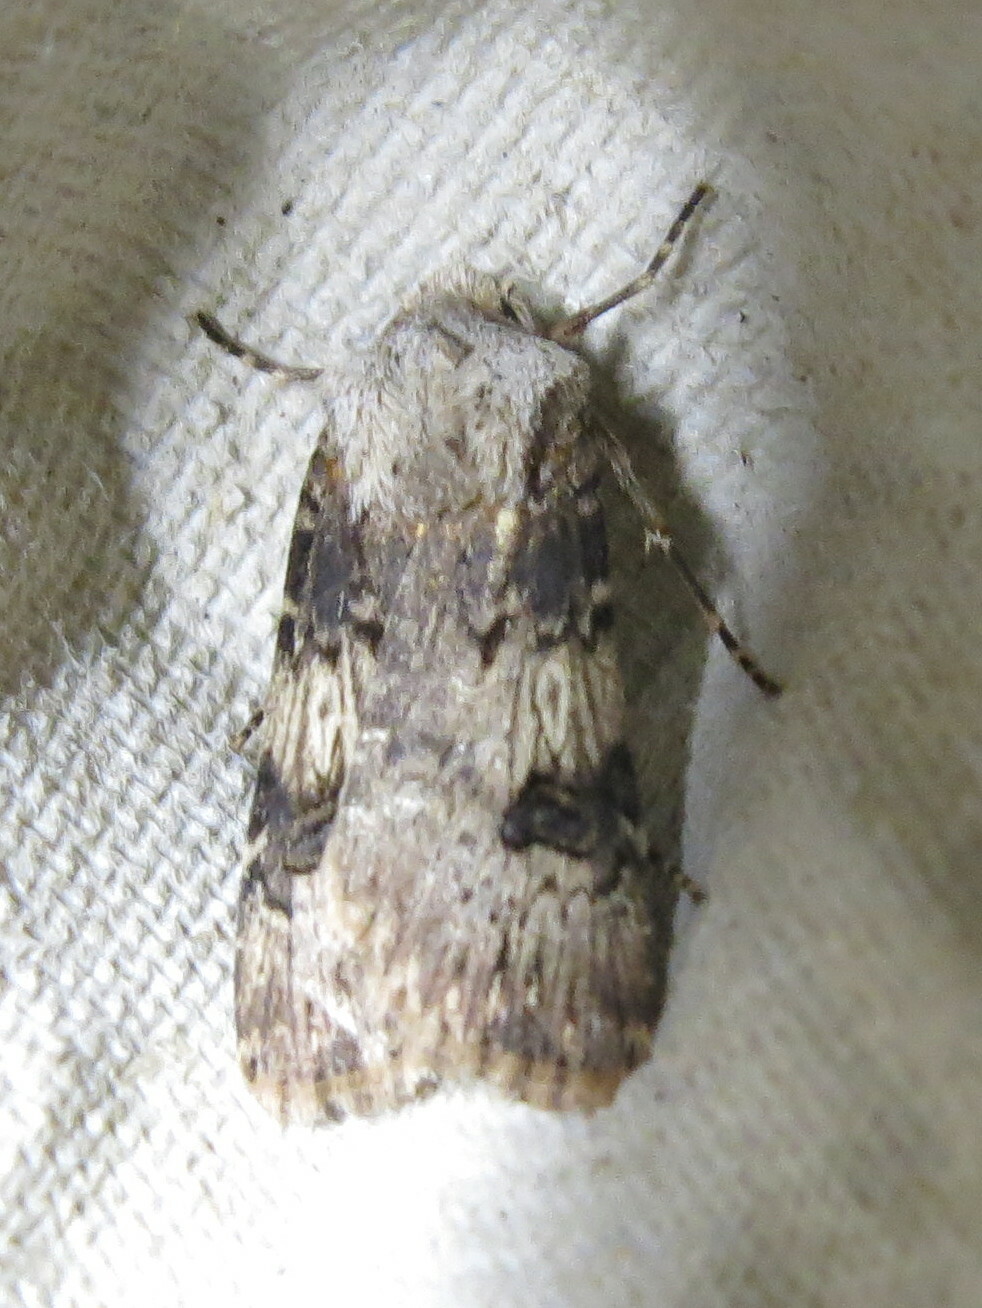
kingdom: Animalia
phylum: Arthropoda
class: Insecta
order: Lepidoptera
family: Noctuidae
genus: Agrotis
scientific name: Agrotis puta
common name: Shuttle-shaped dart
